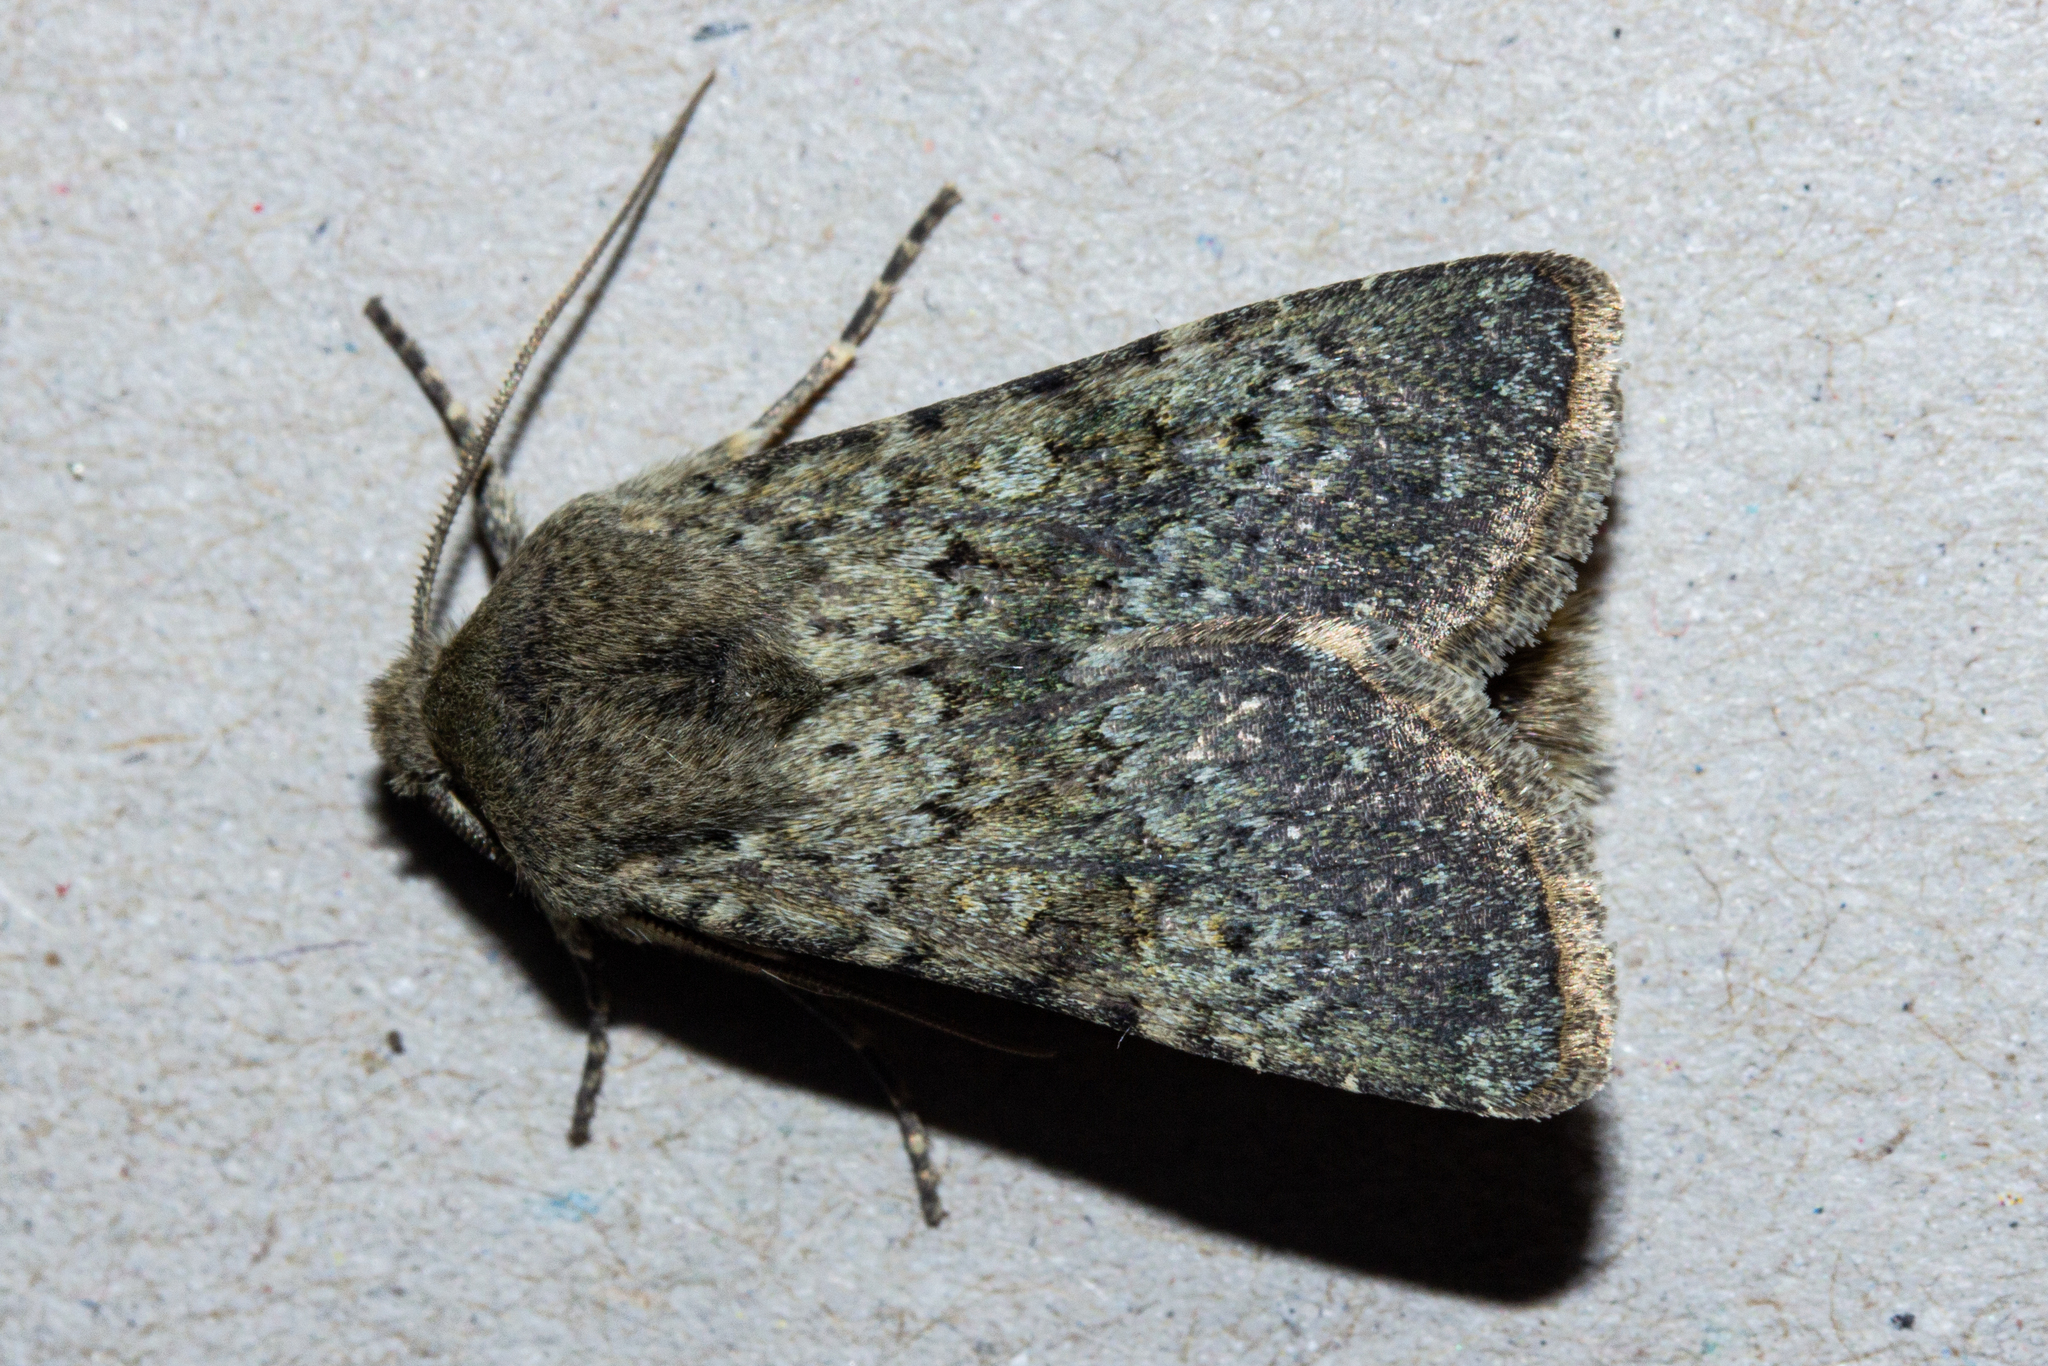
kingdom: Animalia
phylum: Arthropoda
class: Insecta
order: Lepidoptera
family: Noctuidae
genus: Ichneutica
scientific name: Ichneutica moderata
